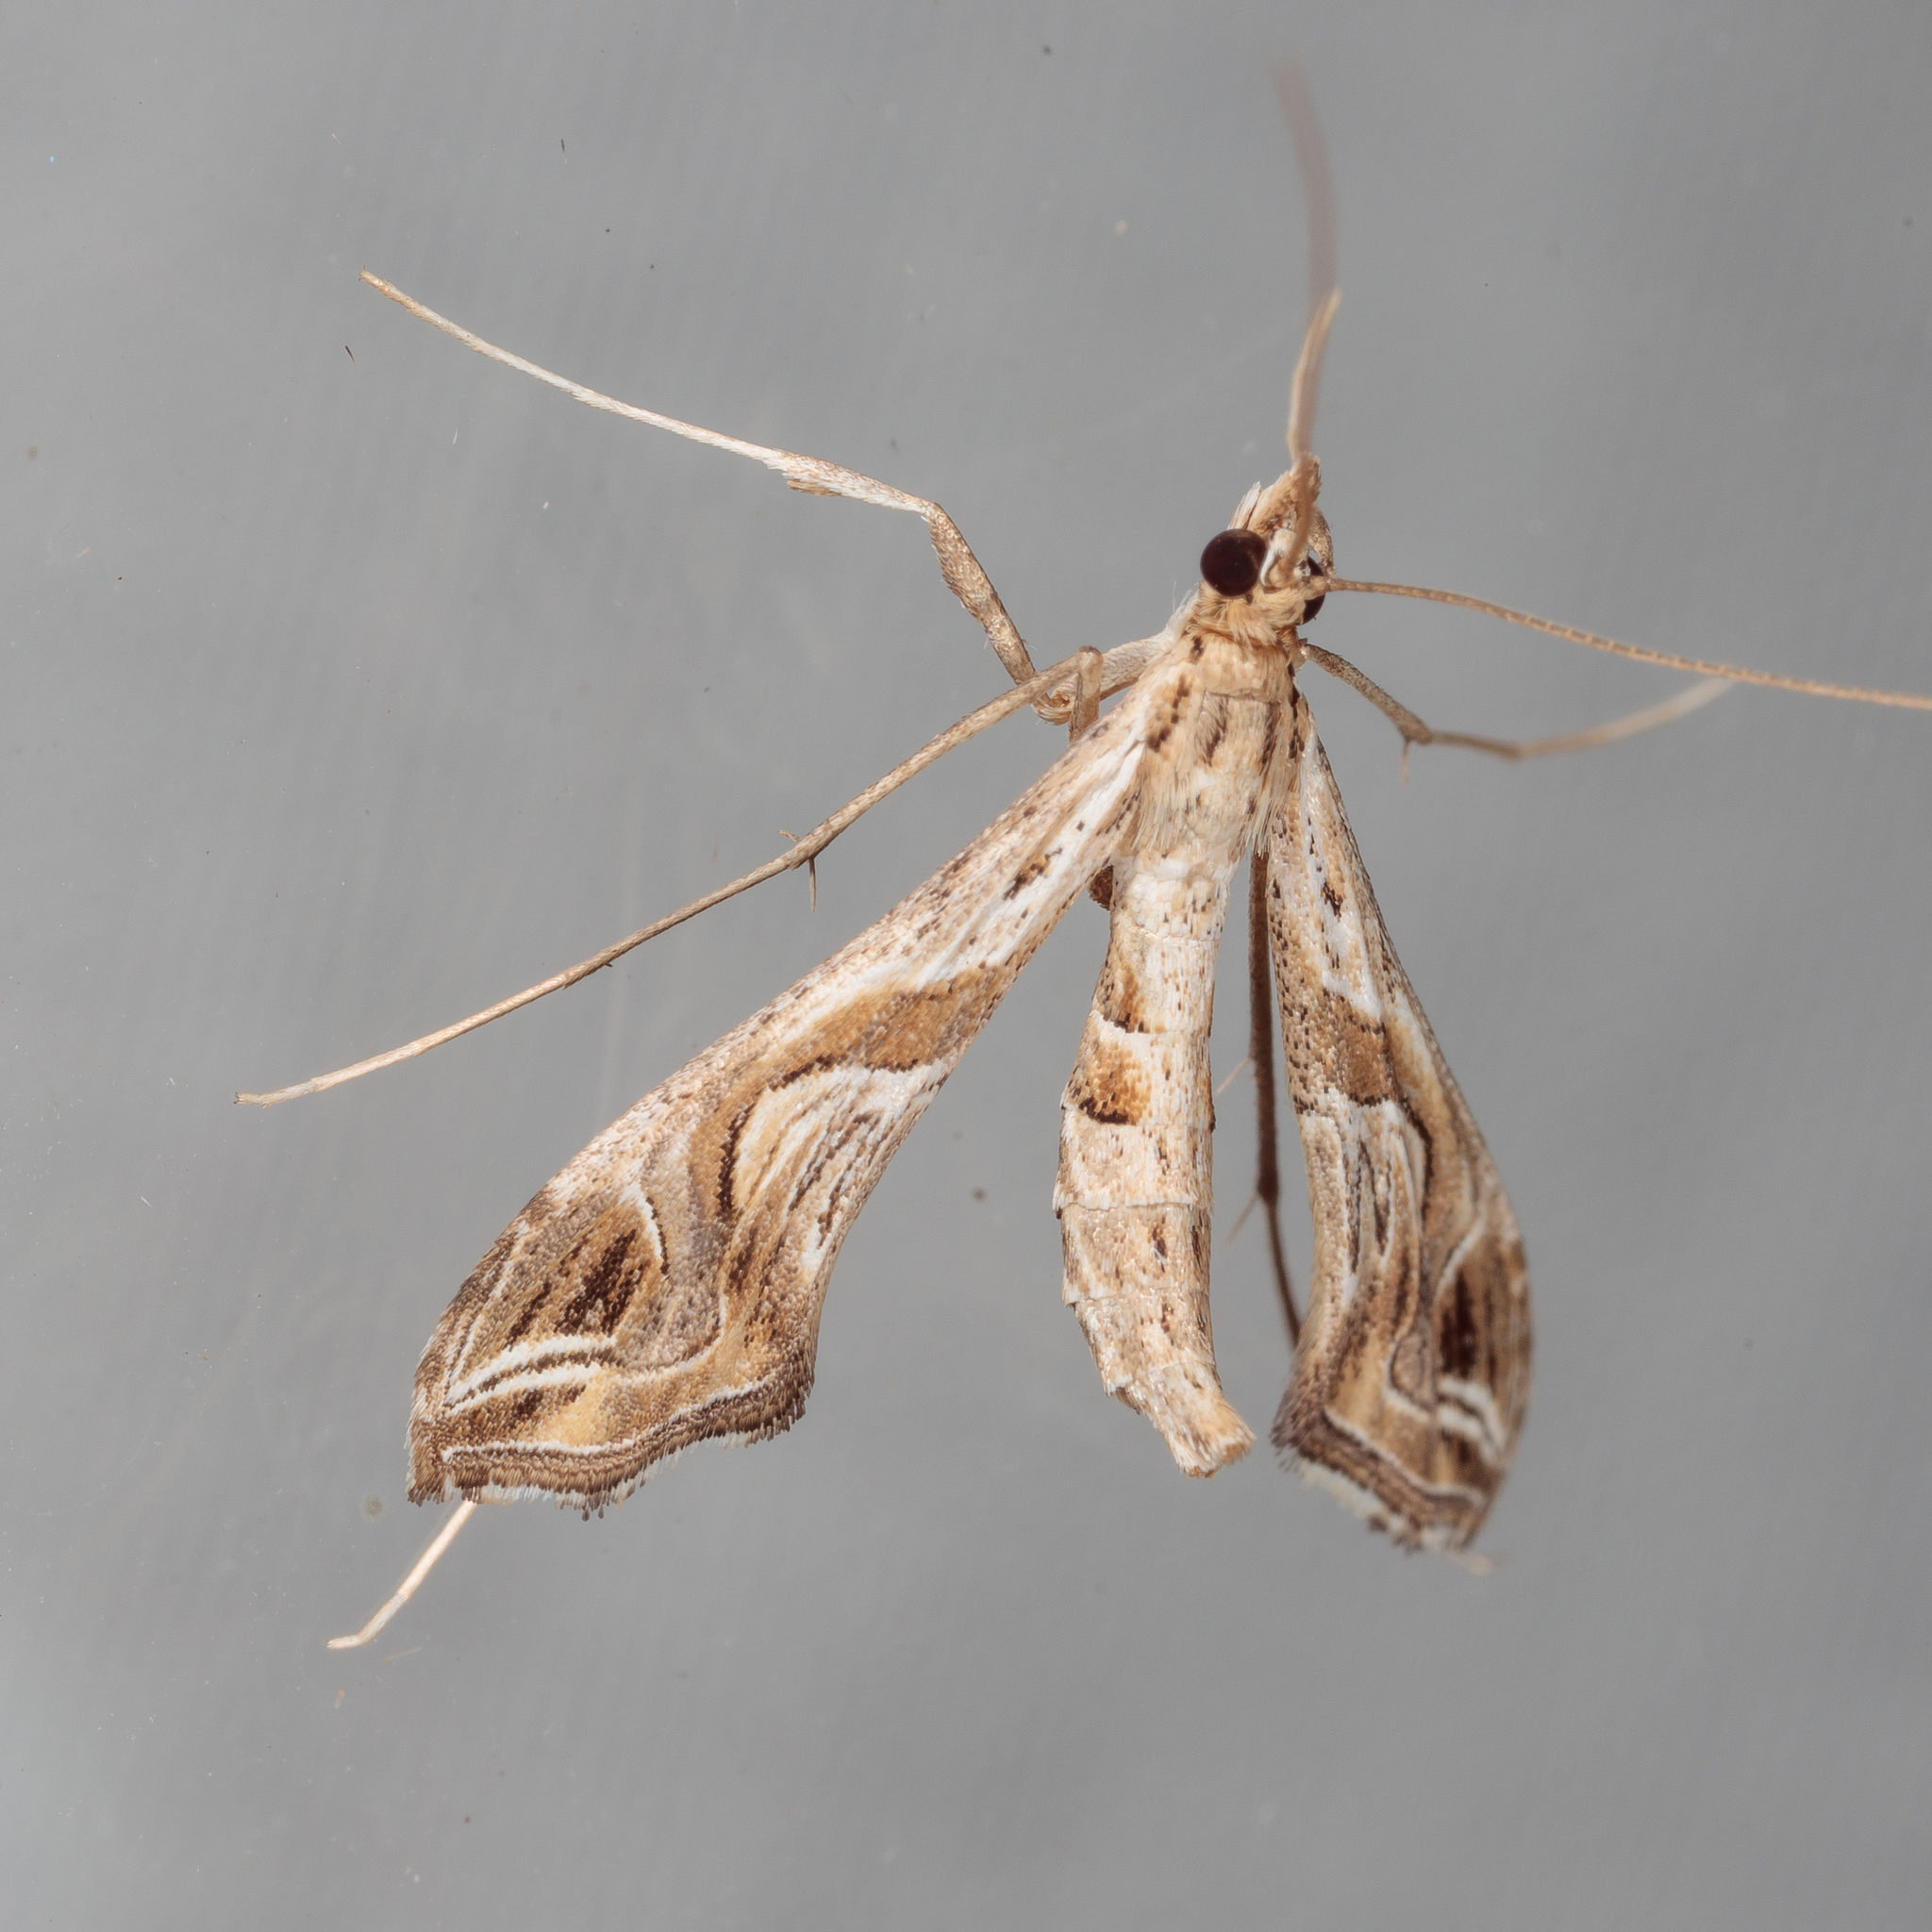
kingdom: Animalia
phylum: Arthropoda
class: Insecta
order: Lepidoptera
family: Crambidae
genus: Lineodes
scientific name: Lineodes integra
